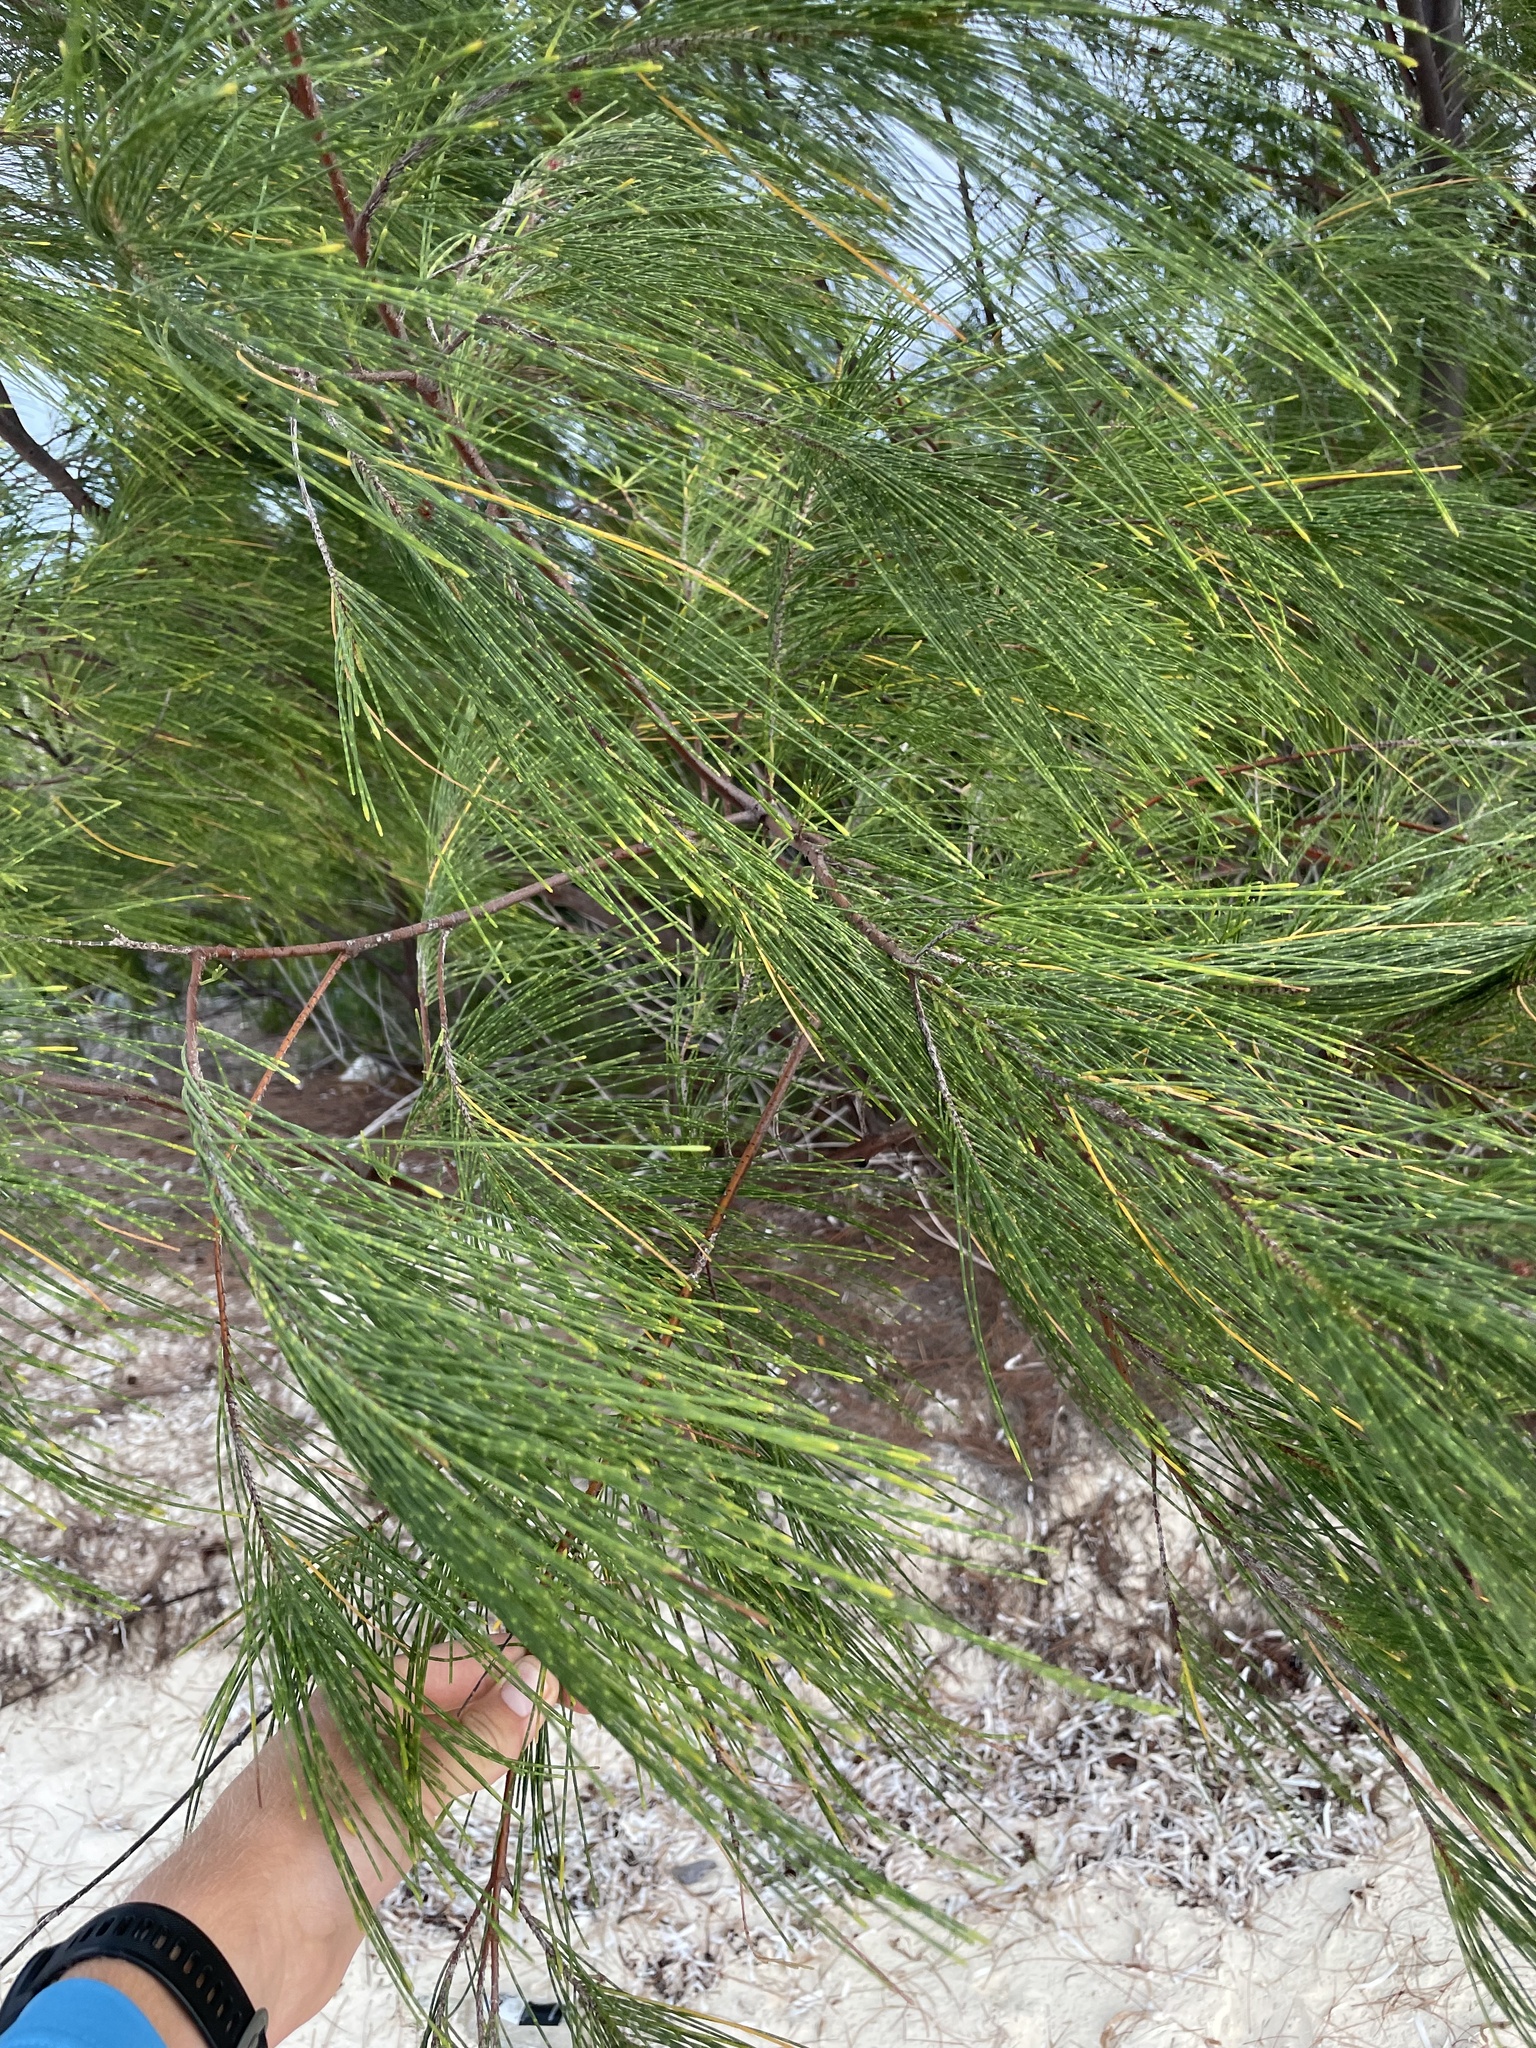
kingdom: Plantae
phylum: Tracheophyta
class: Magnoliopsida
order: Fagales
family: Casuarinaceae
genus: Casuarina
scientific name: Casuarina equisetifolia
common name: Beach sheoak
